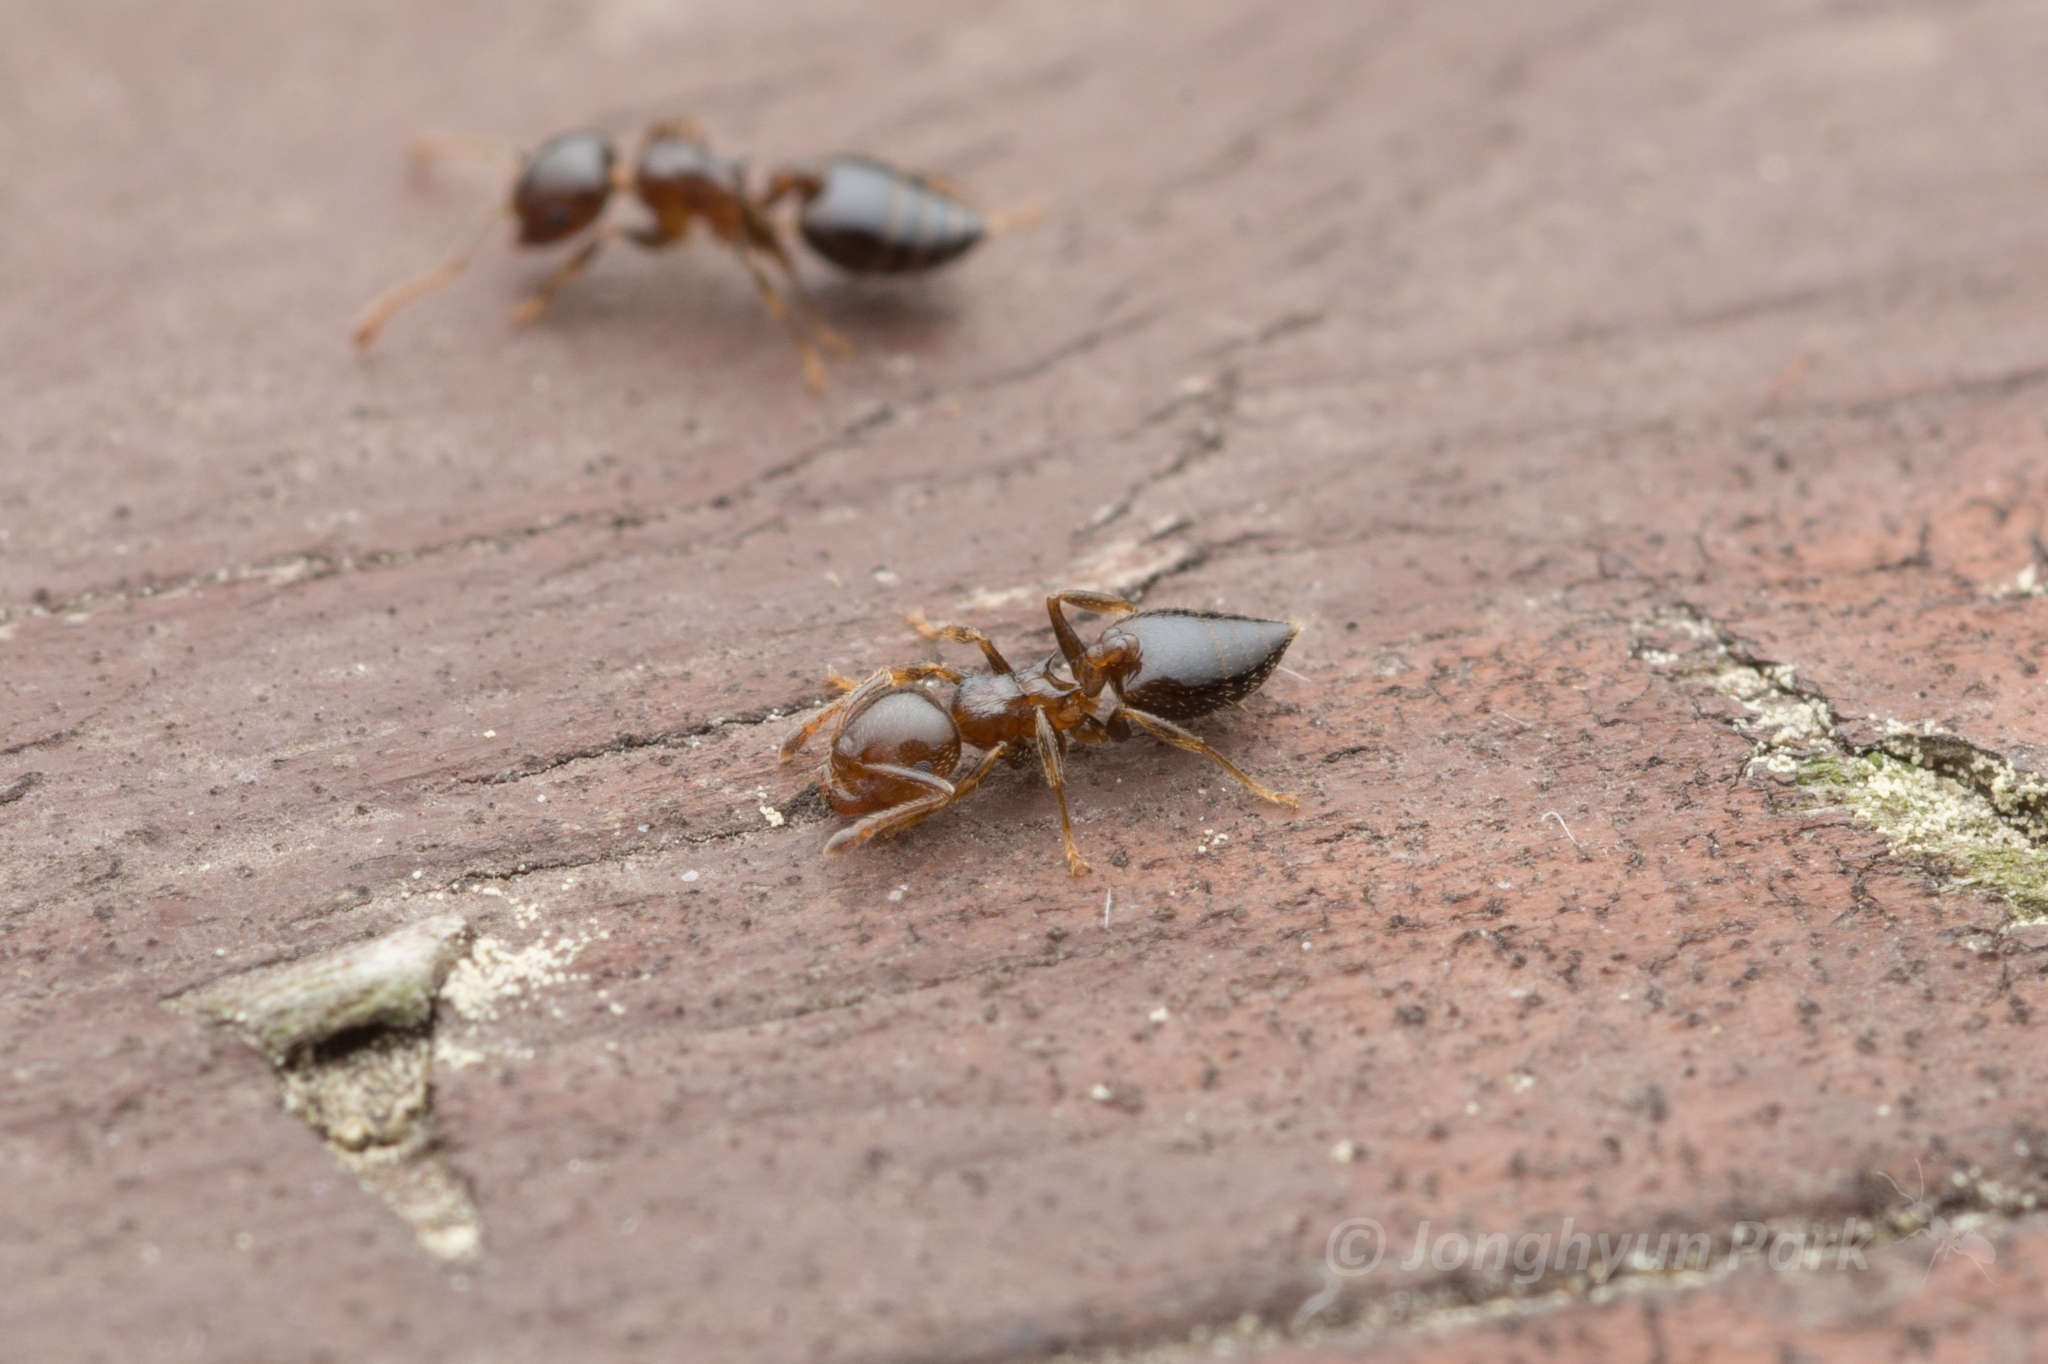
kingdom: Animalia
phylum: Arthropoda
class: Insecta
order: Hymenoptera
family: Formicidae
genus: Crematogaster
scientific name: Crematogaster teranishii
